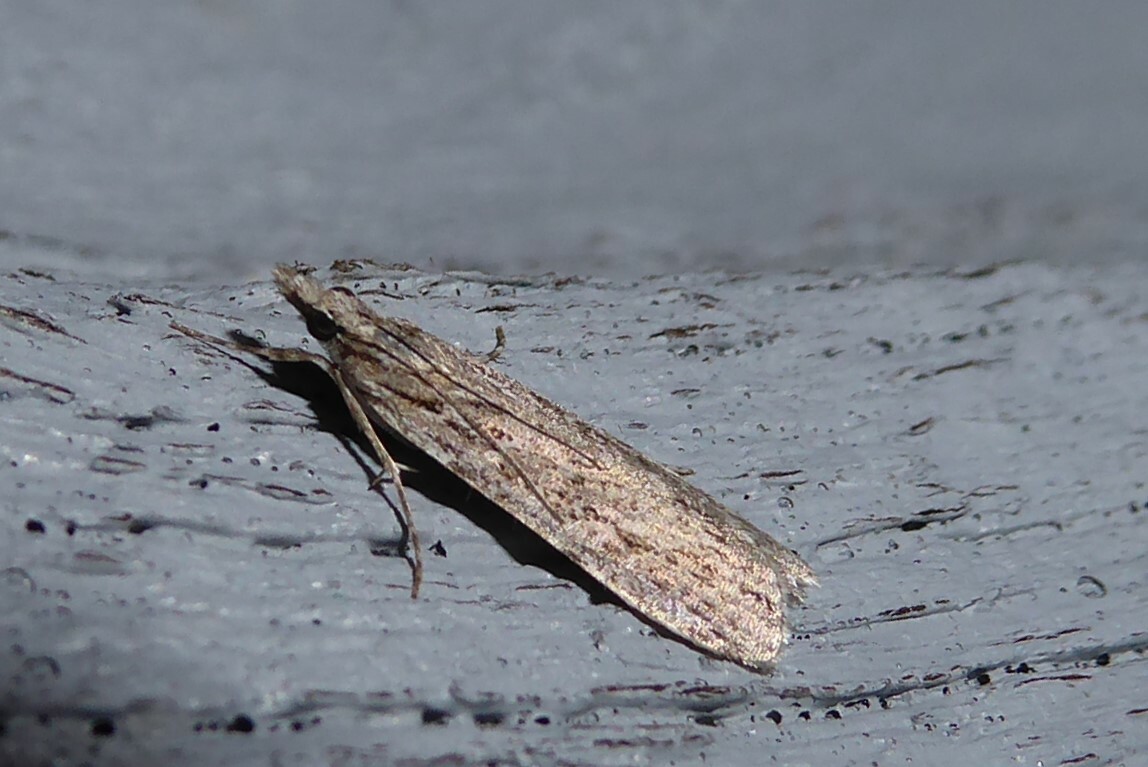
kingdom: Animalia
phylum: Arthropoda
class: Insecta
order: Lepidoptera
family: Crambidae
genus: Scoparia
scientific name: Scoparia chalicodes
